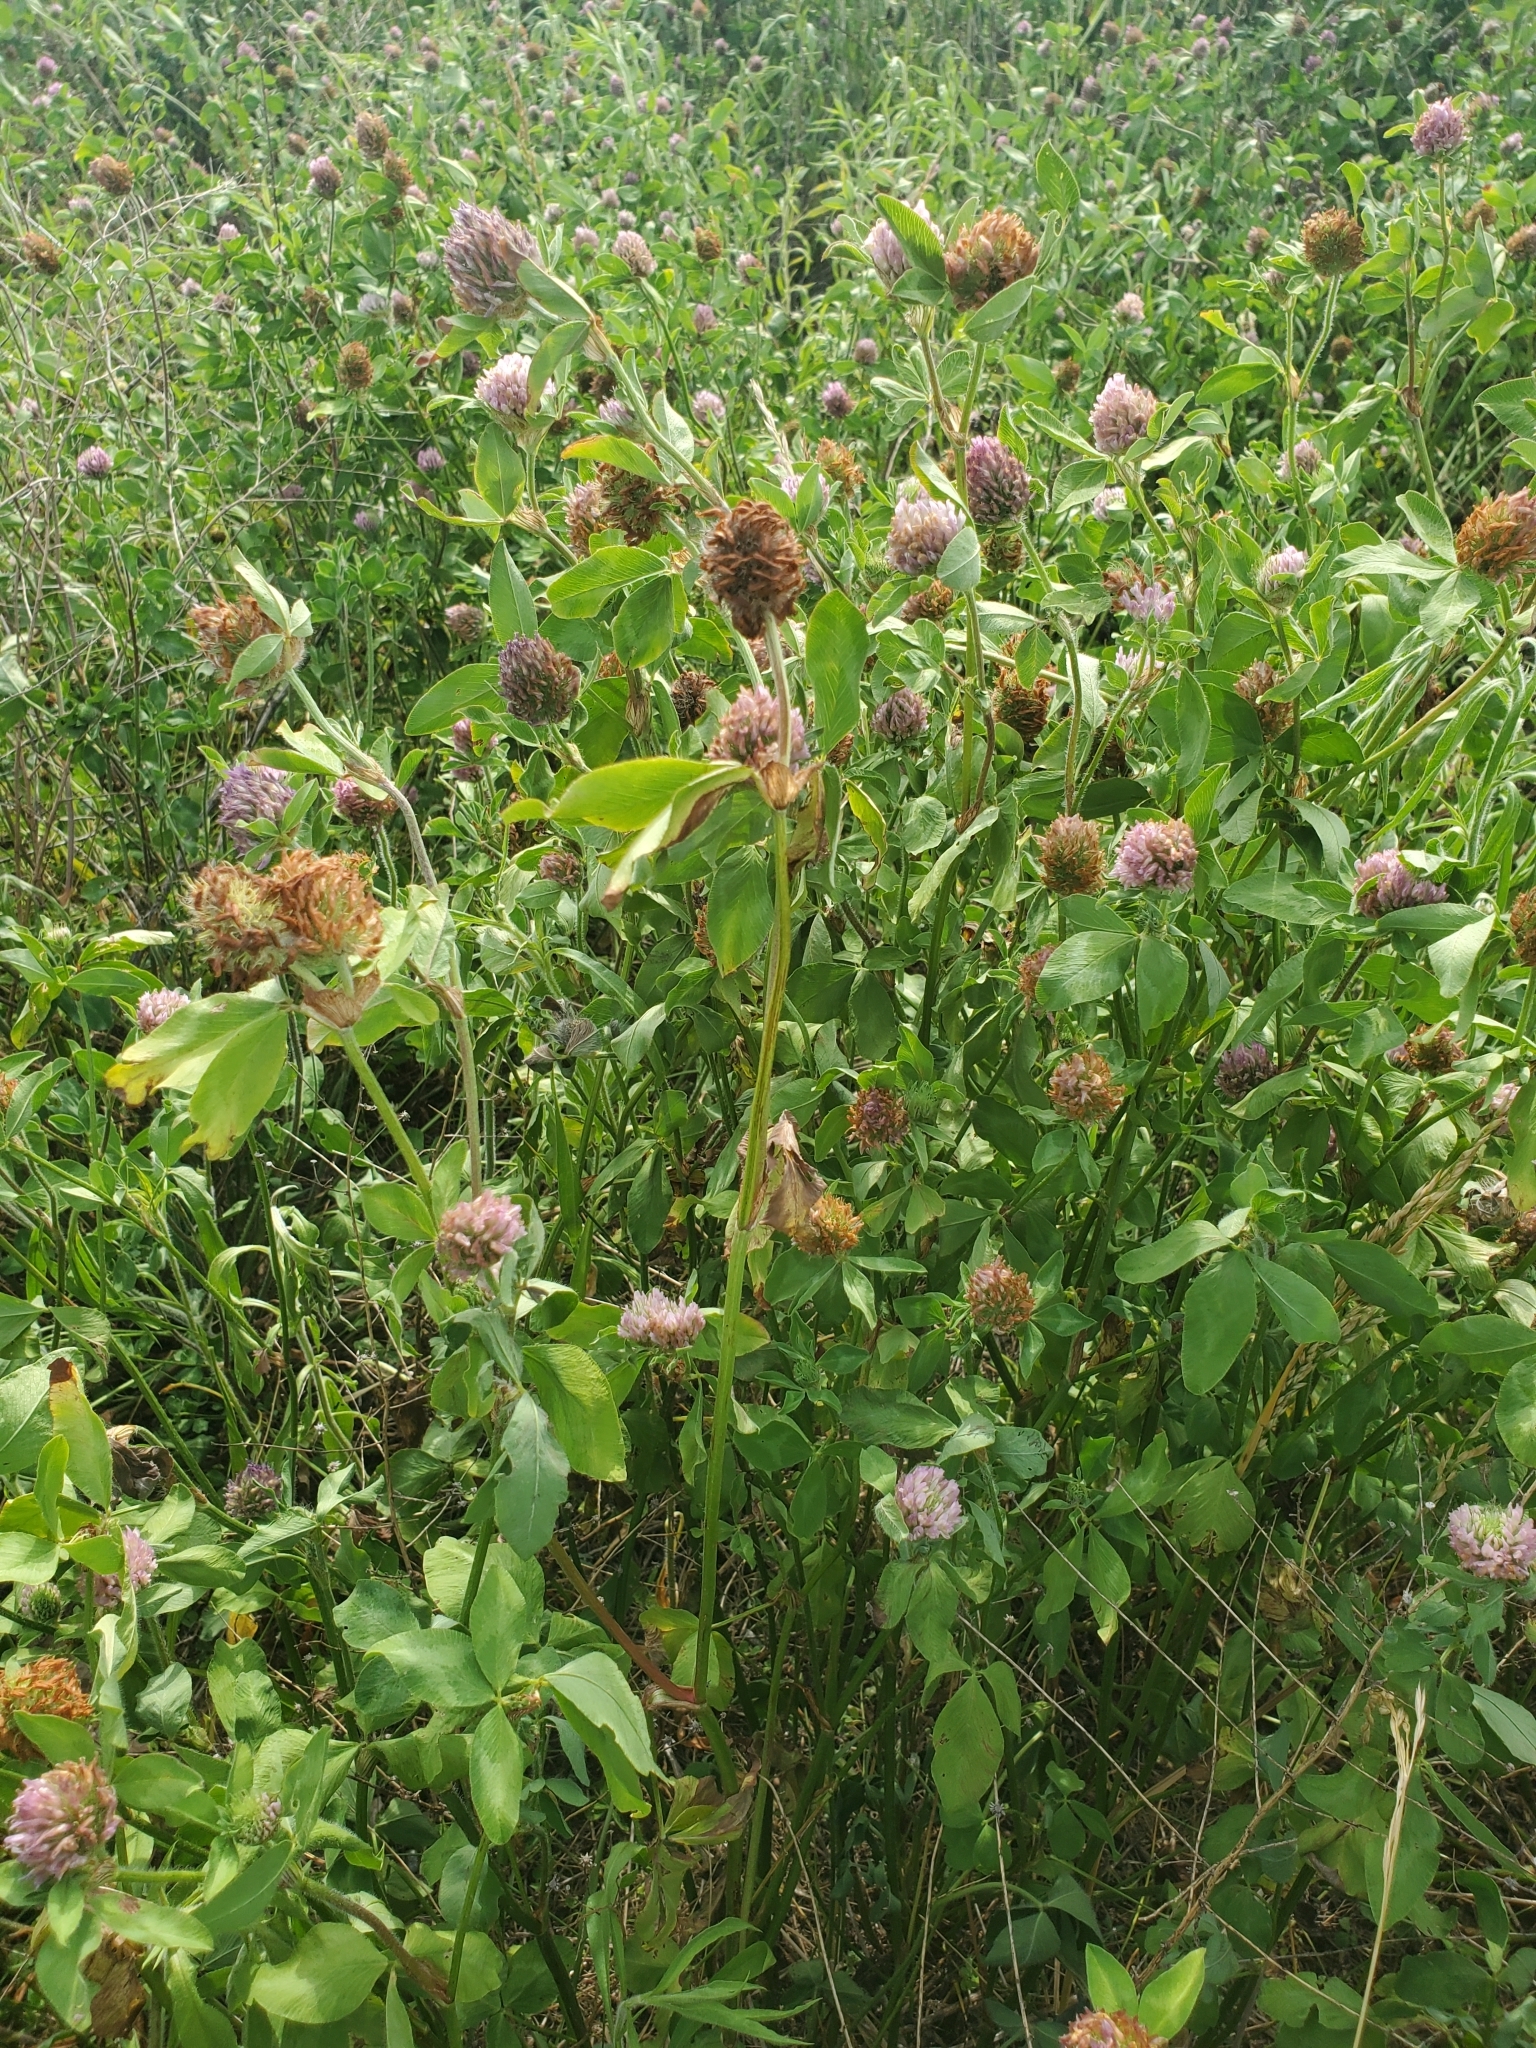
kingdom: Plantae
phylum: Tracheophyta
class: Magnoliopsida
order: Fabales
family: Fabaceae
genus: Trifolium
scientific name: Trifolium pratense
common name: Red clover
